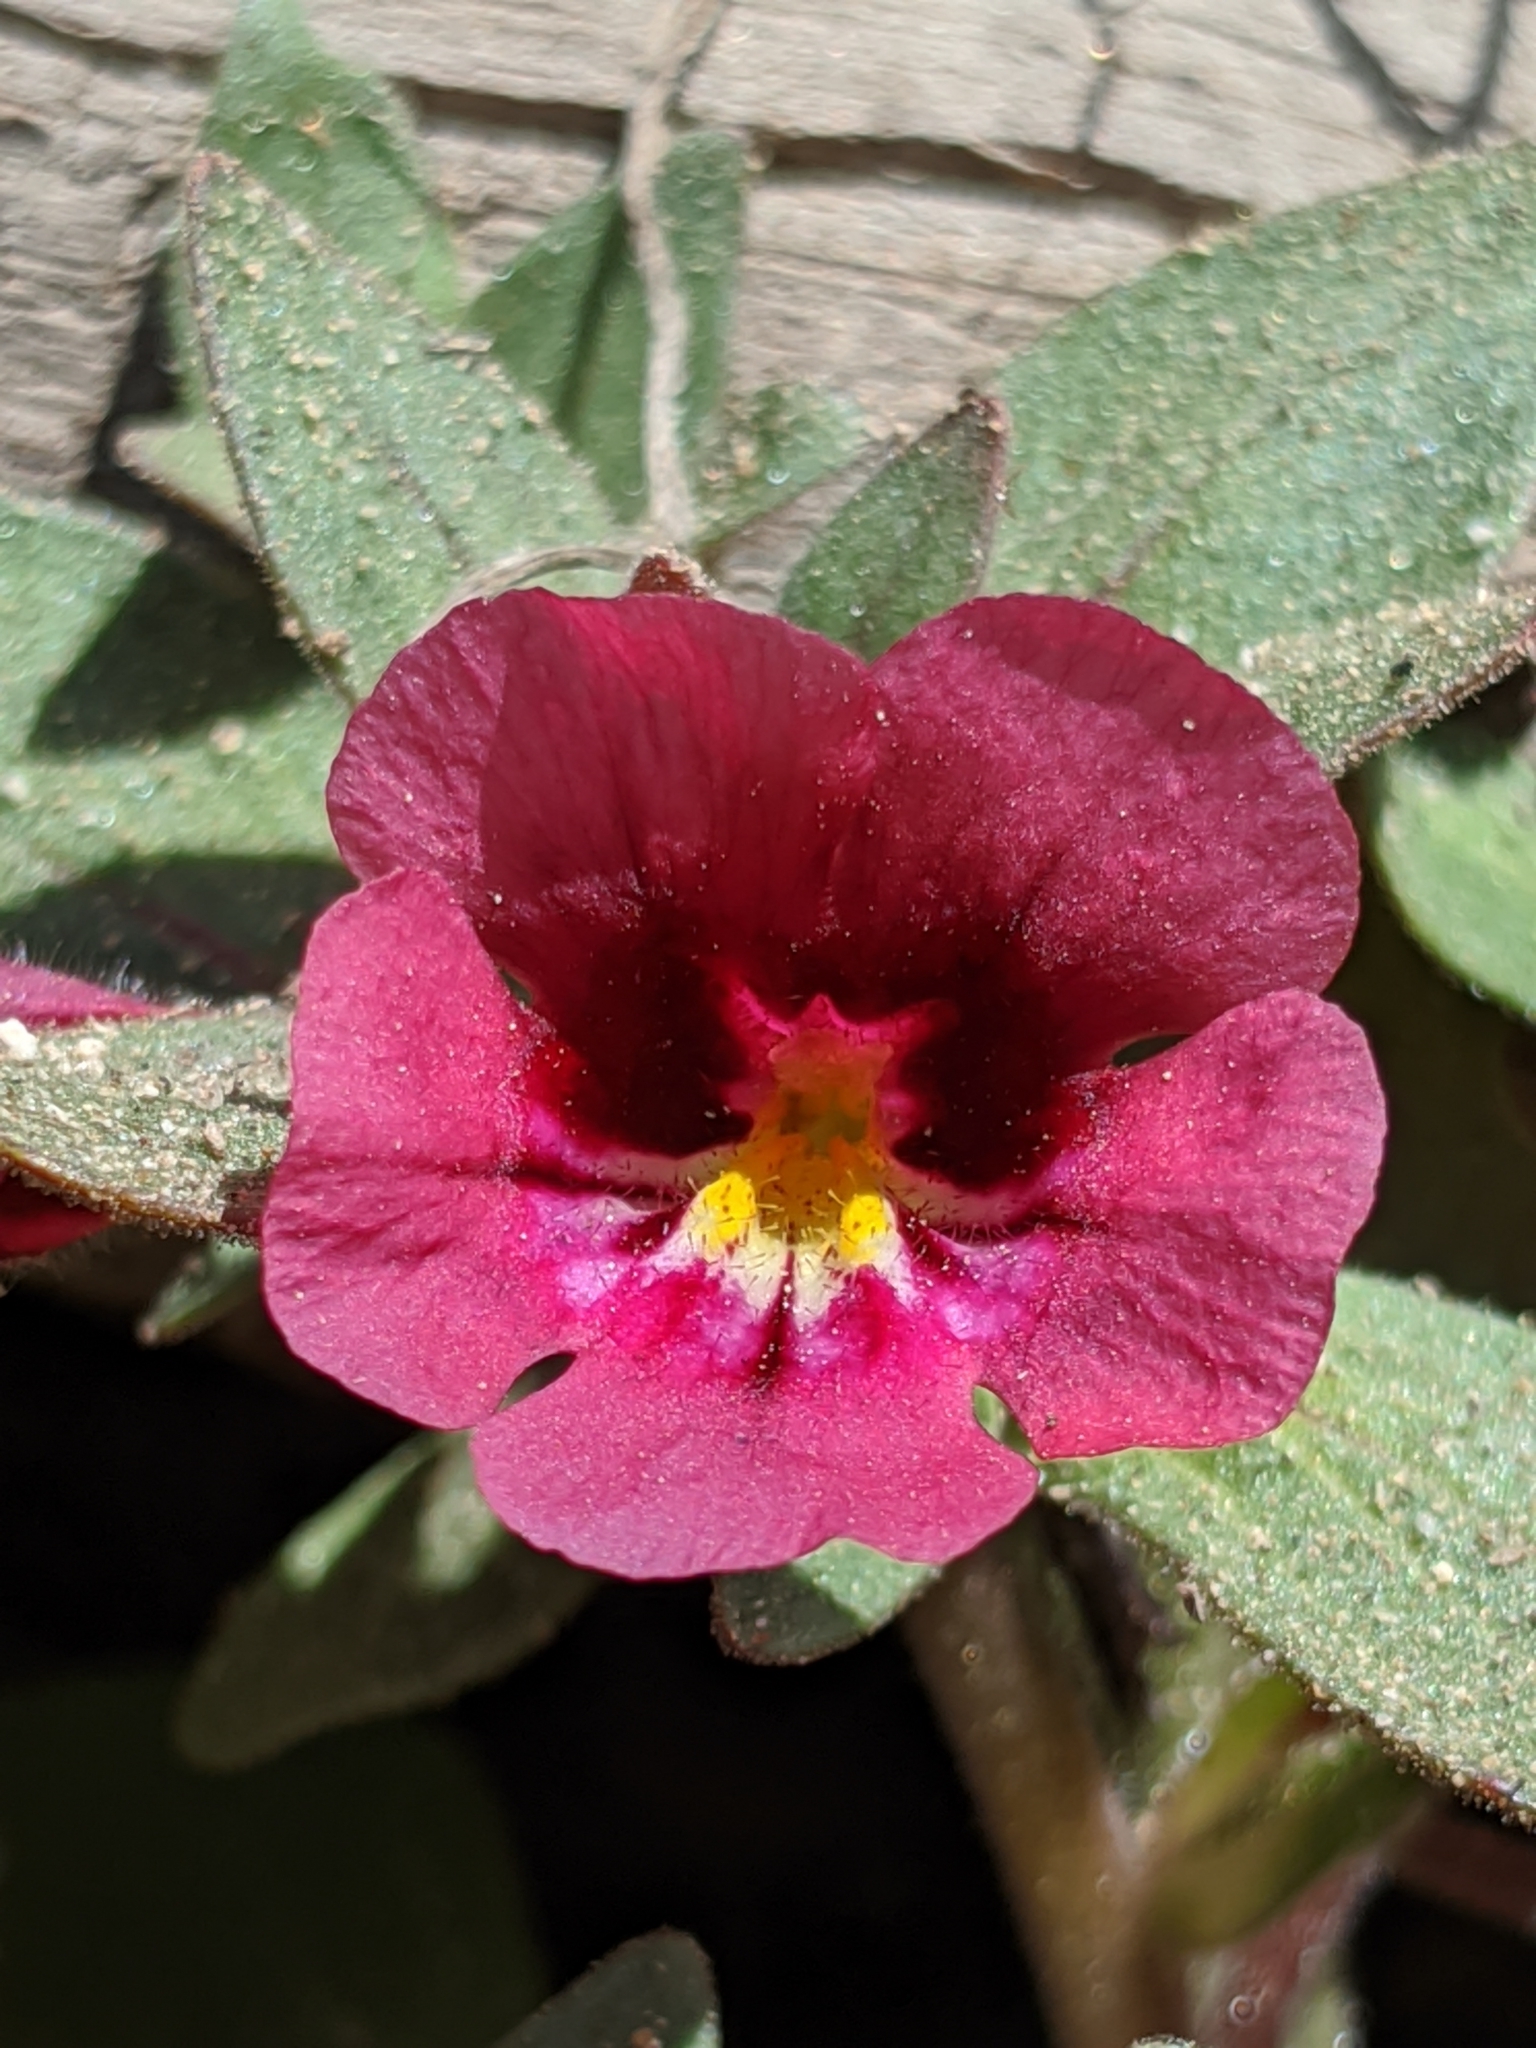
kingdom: Plantae
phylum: Tracheophyta
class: Magnoliopsida
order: Lamiales
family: Phrymaceae
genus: Diplacus
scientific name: Diplacus bicolor
